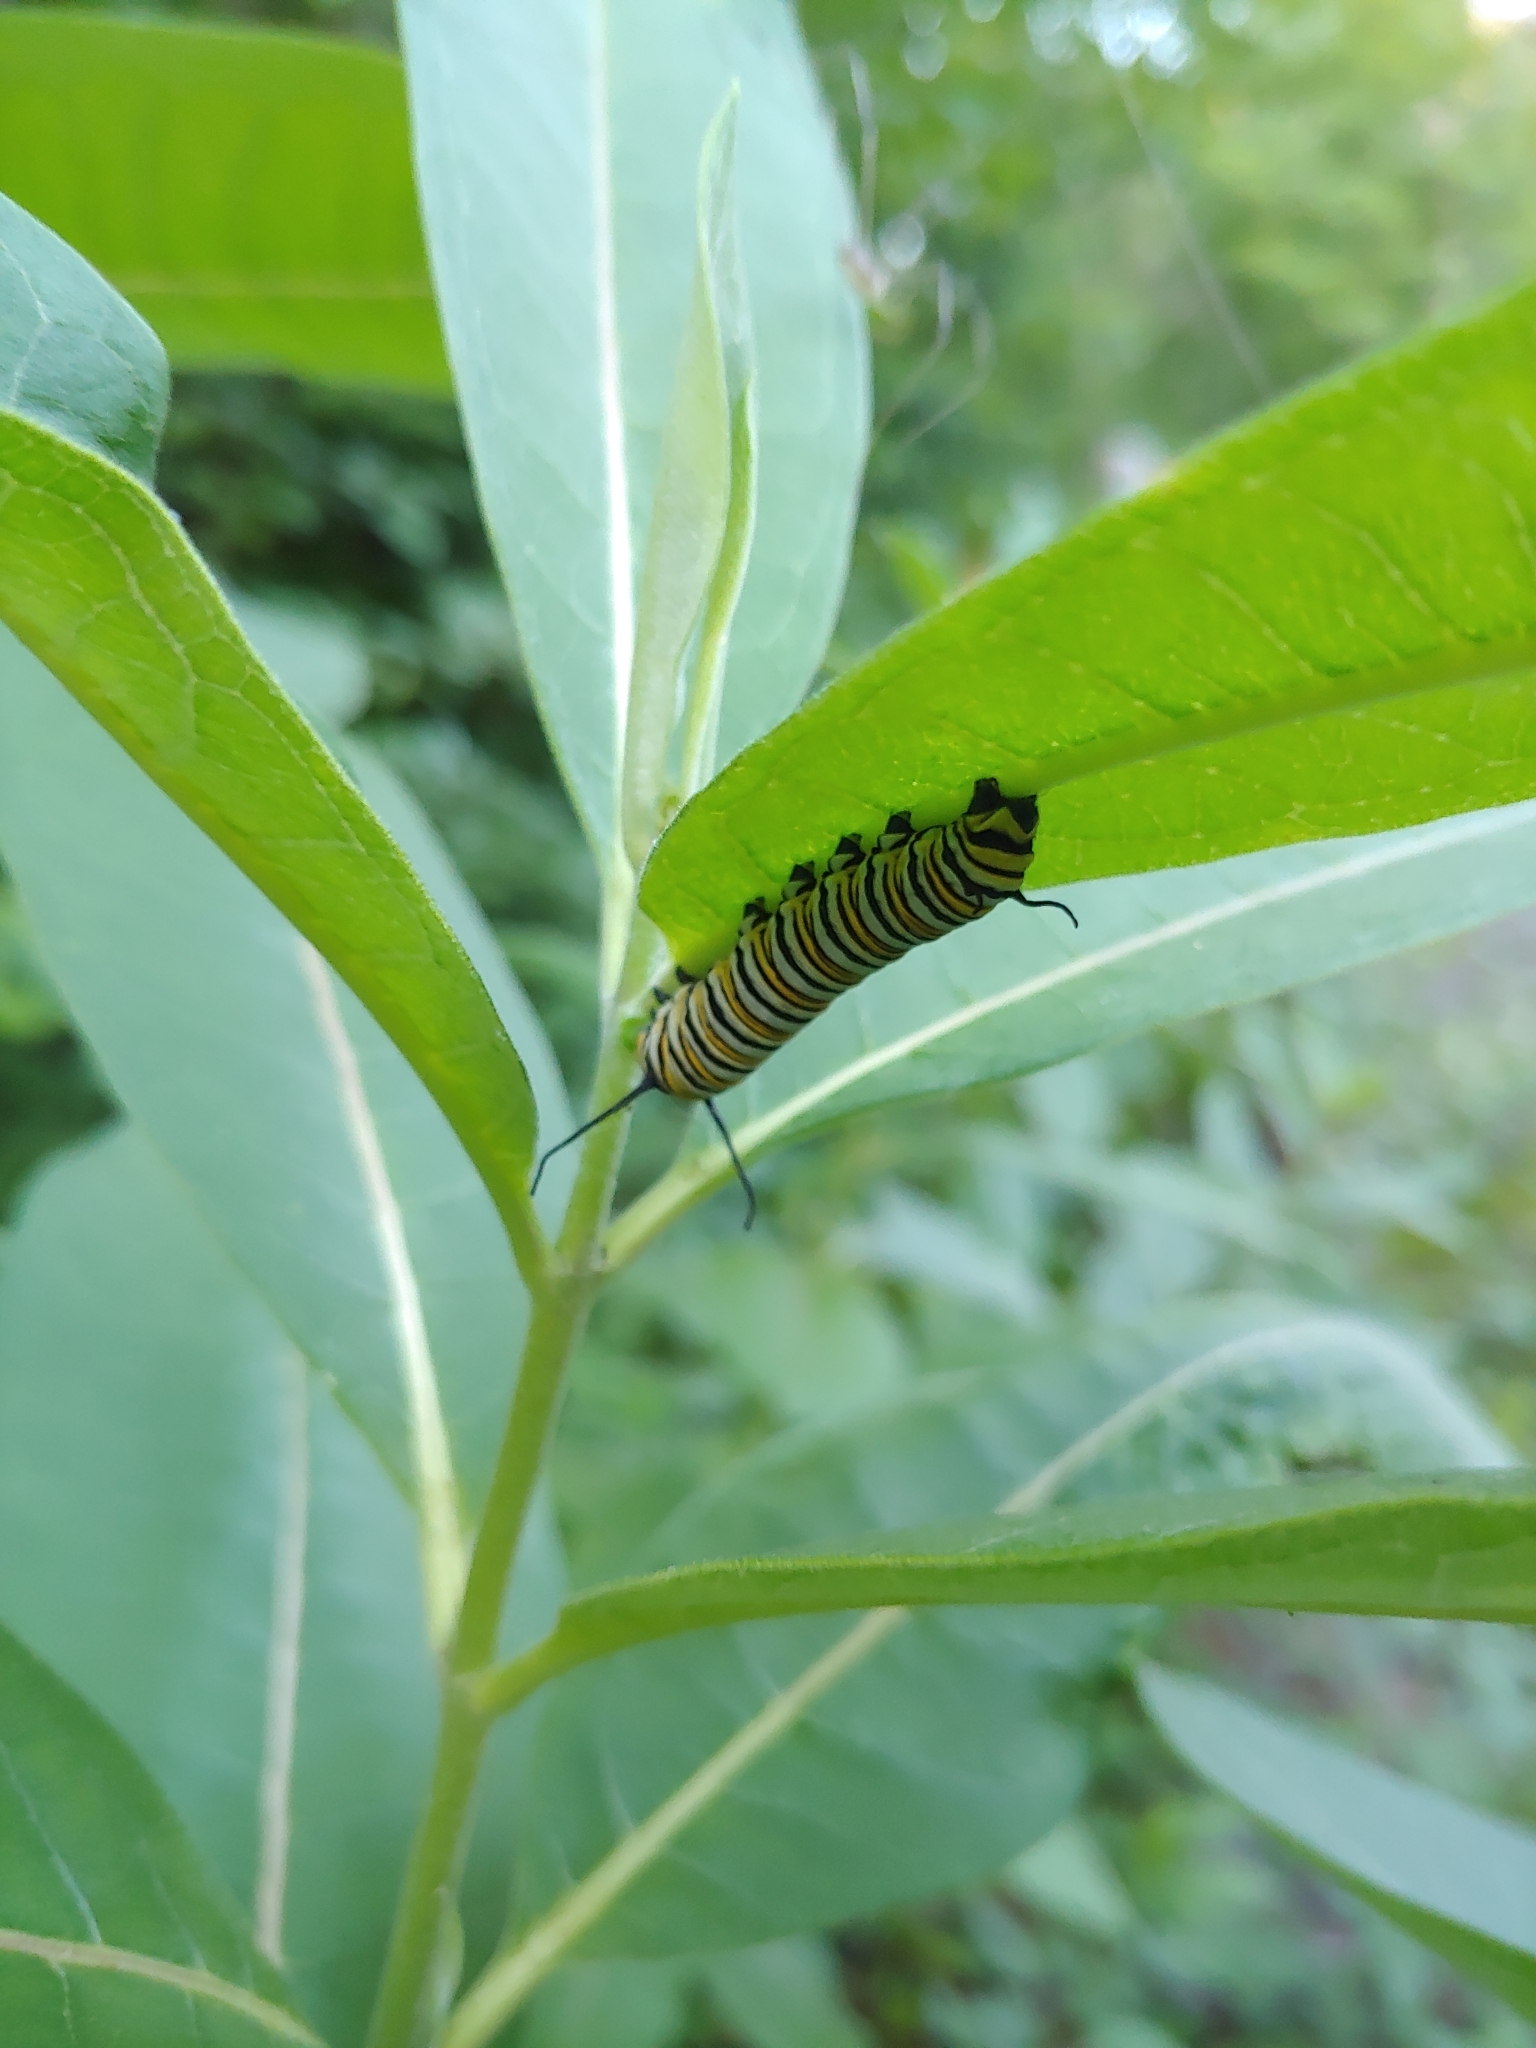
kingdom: Animalia
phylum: Arthropoda
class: Insecta
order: Lepidoptera
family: Nymphalidae
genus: Danaus
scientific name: Danaus plexippus
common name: Monarch
